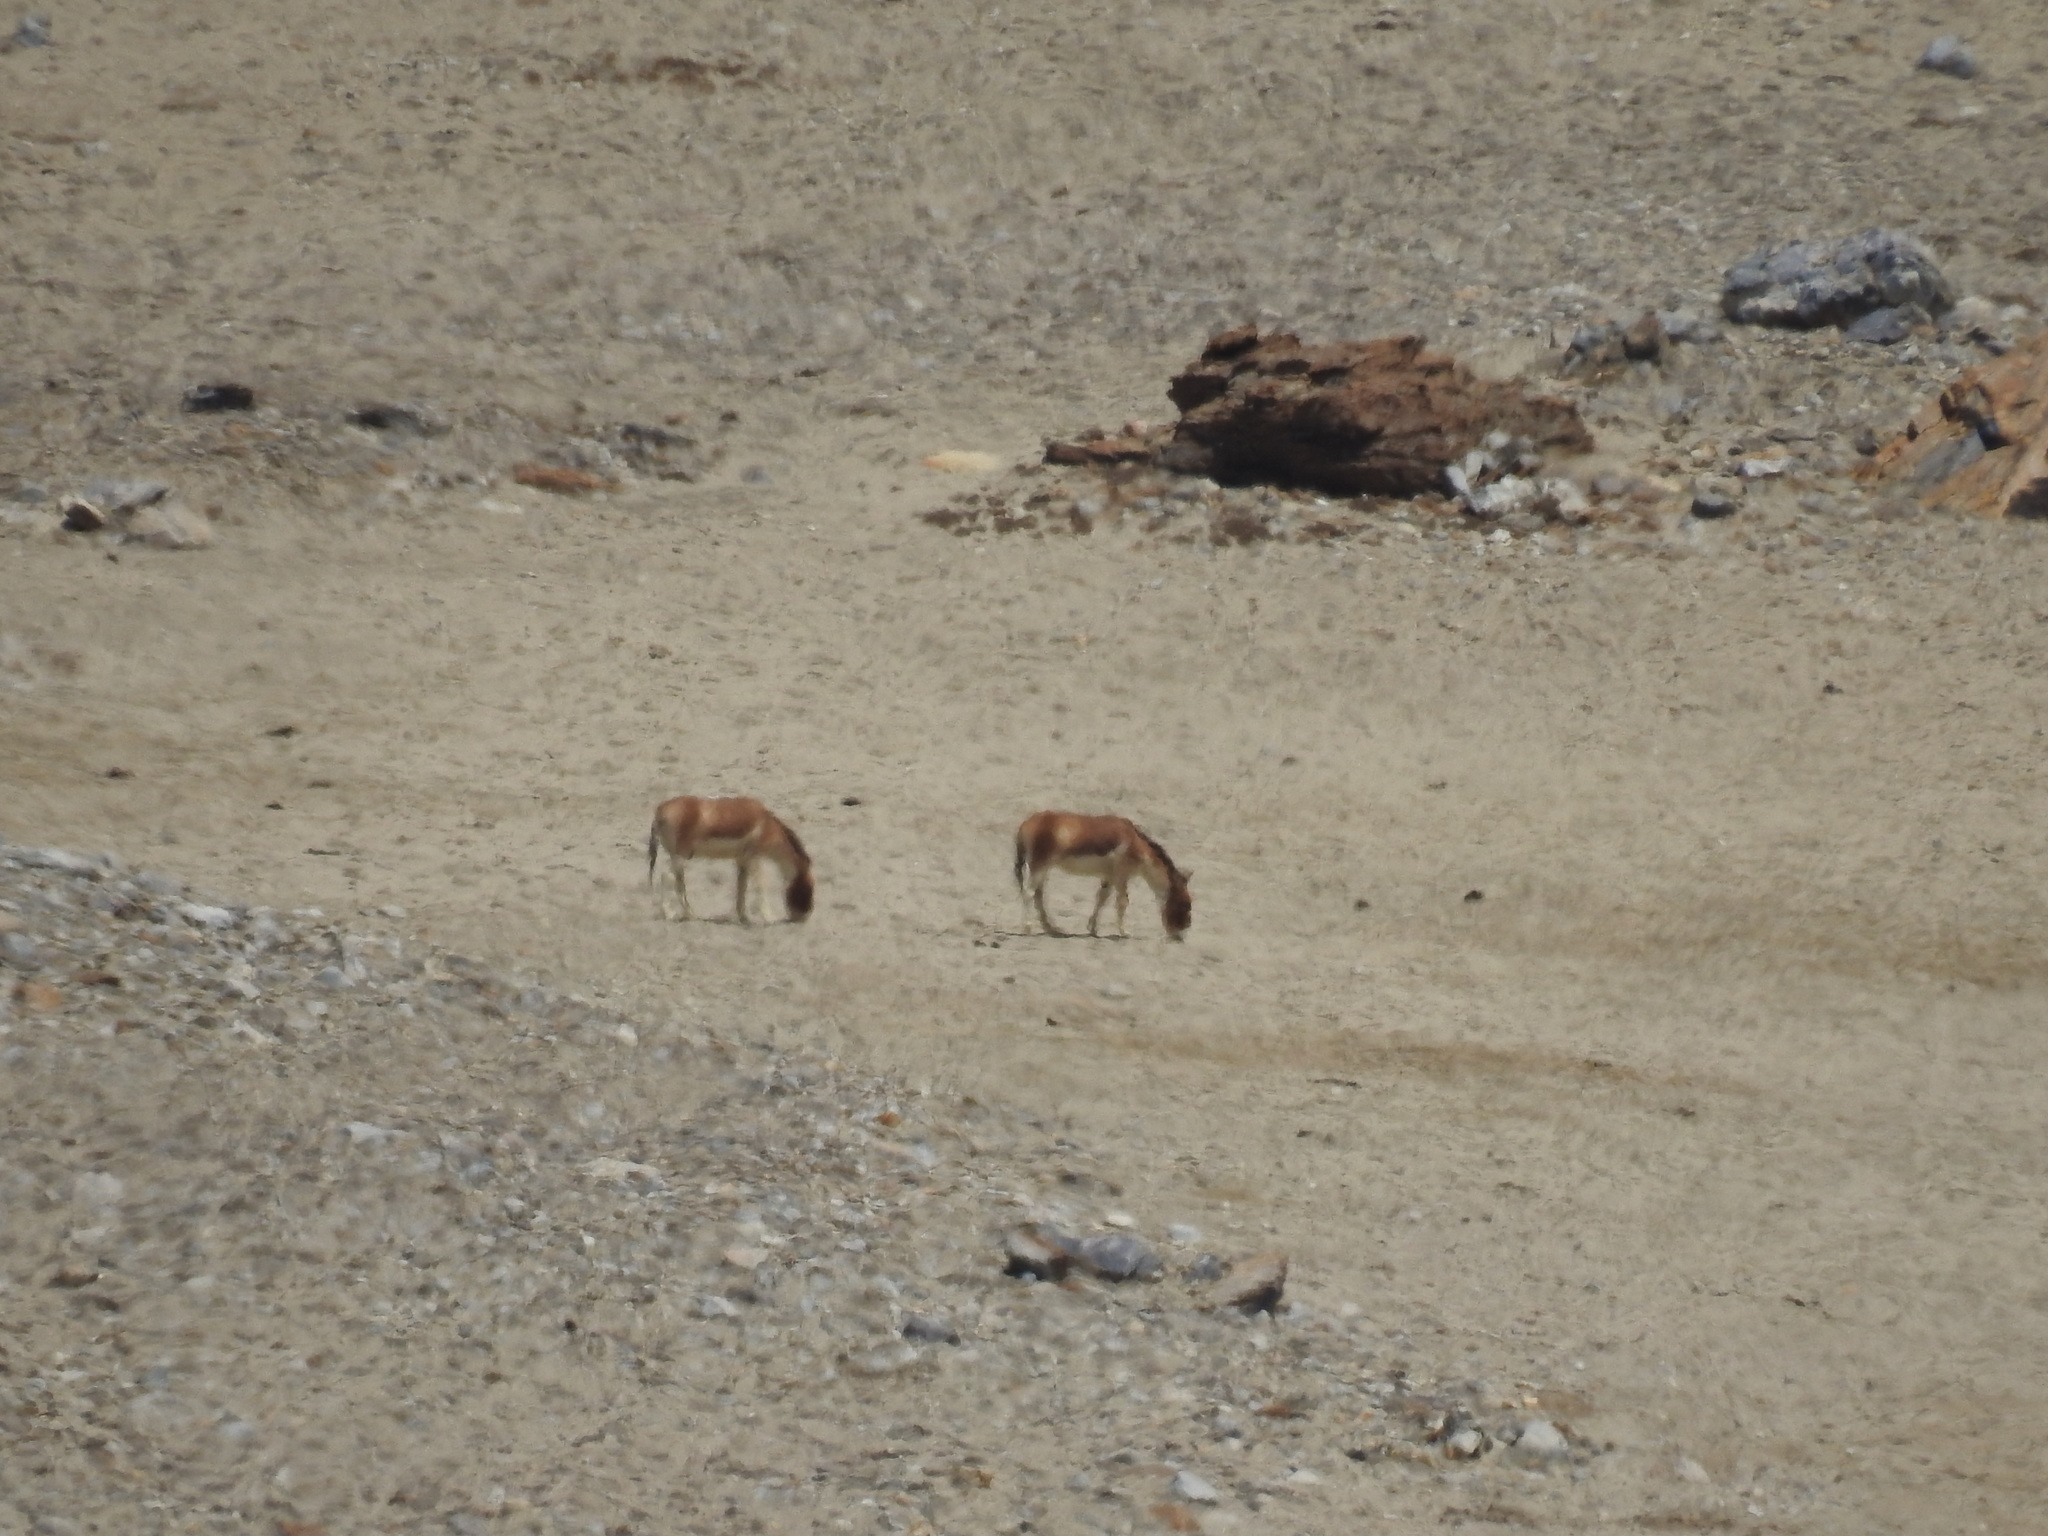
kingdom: Animalia
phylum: Chordata
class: Mammalia
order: Perissodactyla
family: Equidae
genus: Equus
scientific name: Equus kiang
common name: Kiang
